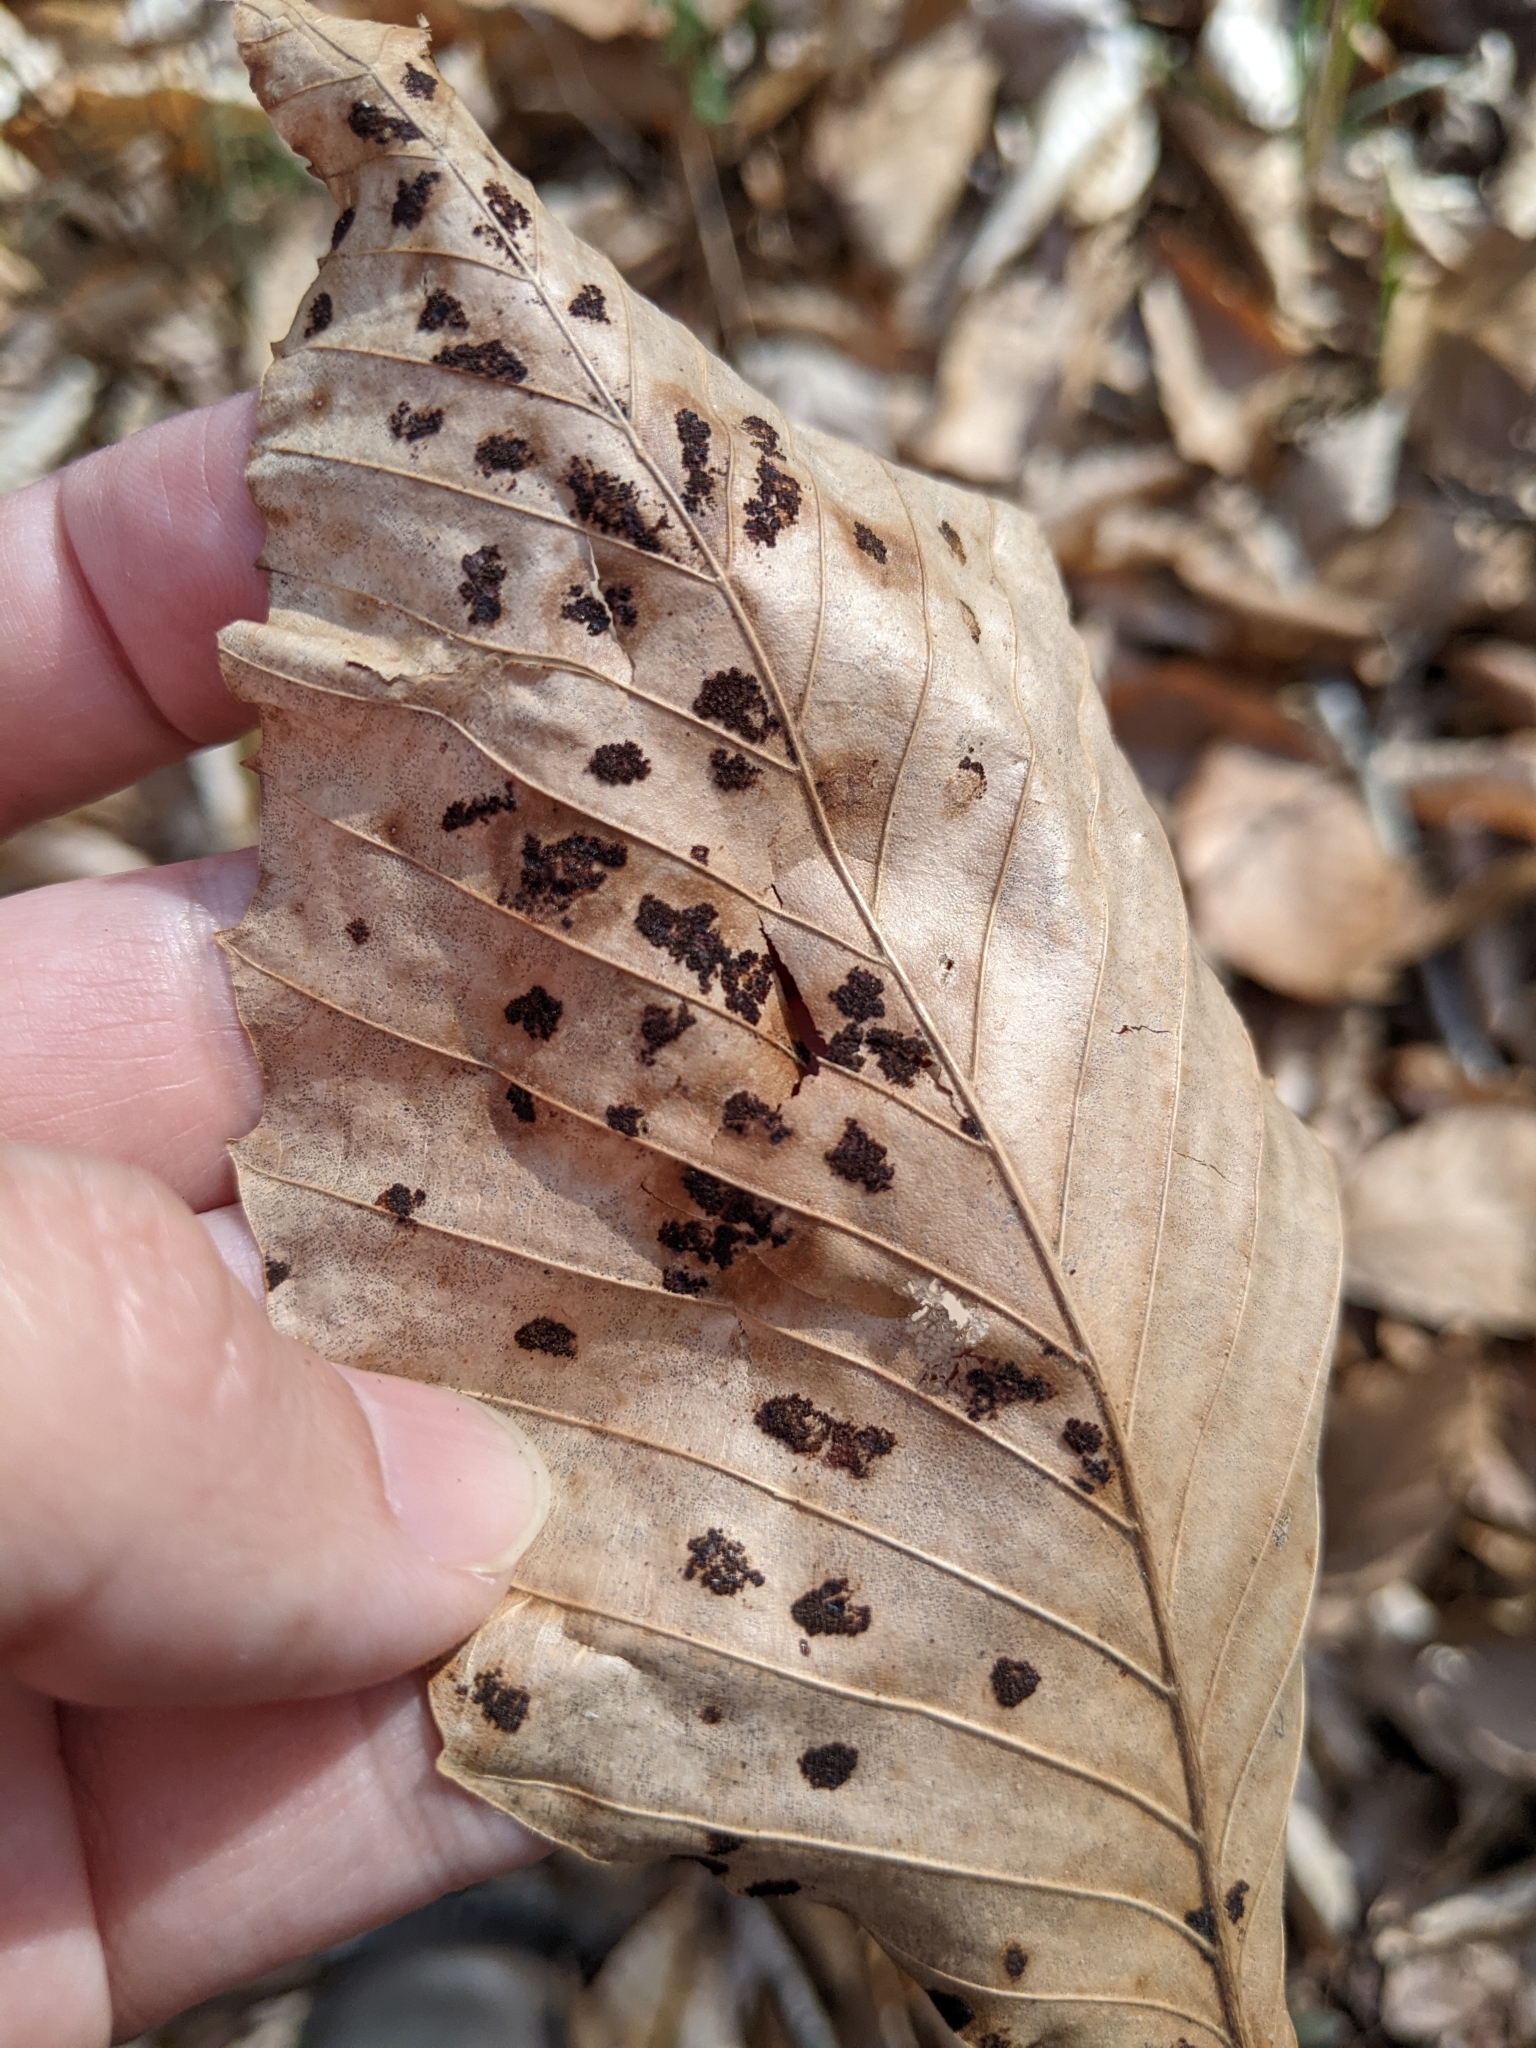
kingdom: Animalia
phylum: Arthropoda
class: Arachnida
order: Trombidiformes
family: Eriophyidae
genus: Acalitus
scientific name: Acalitus
